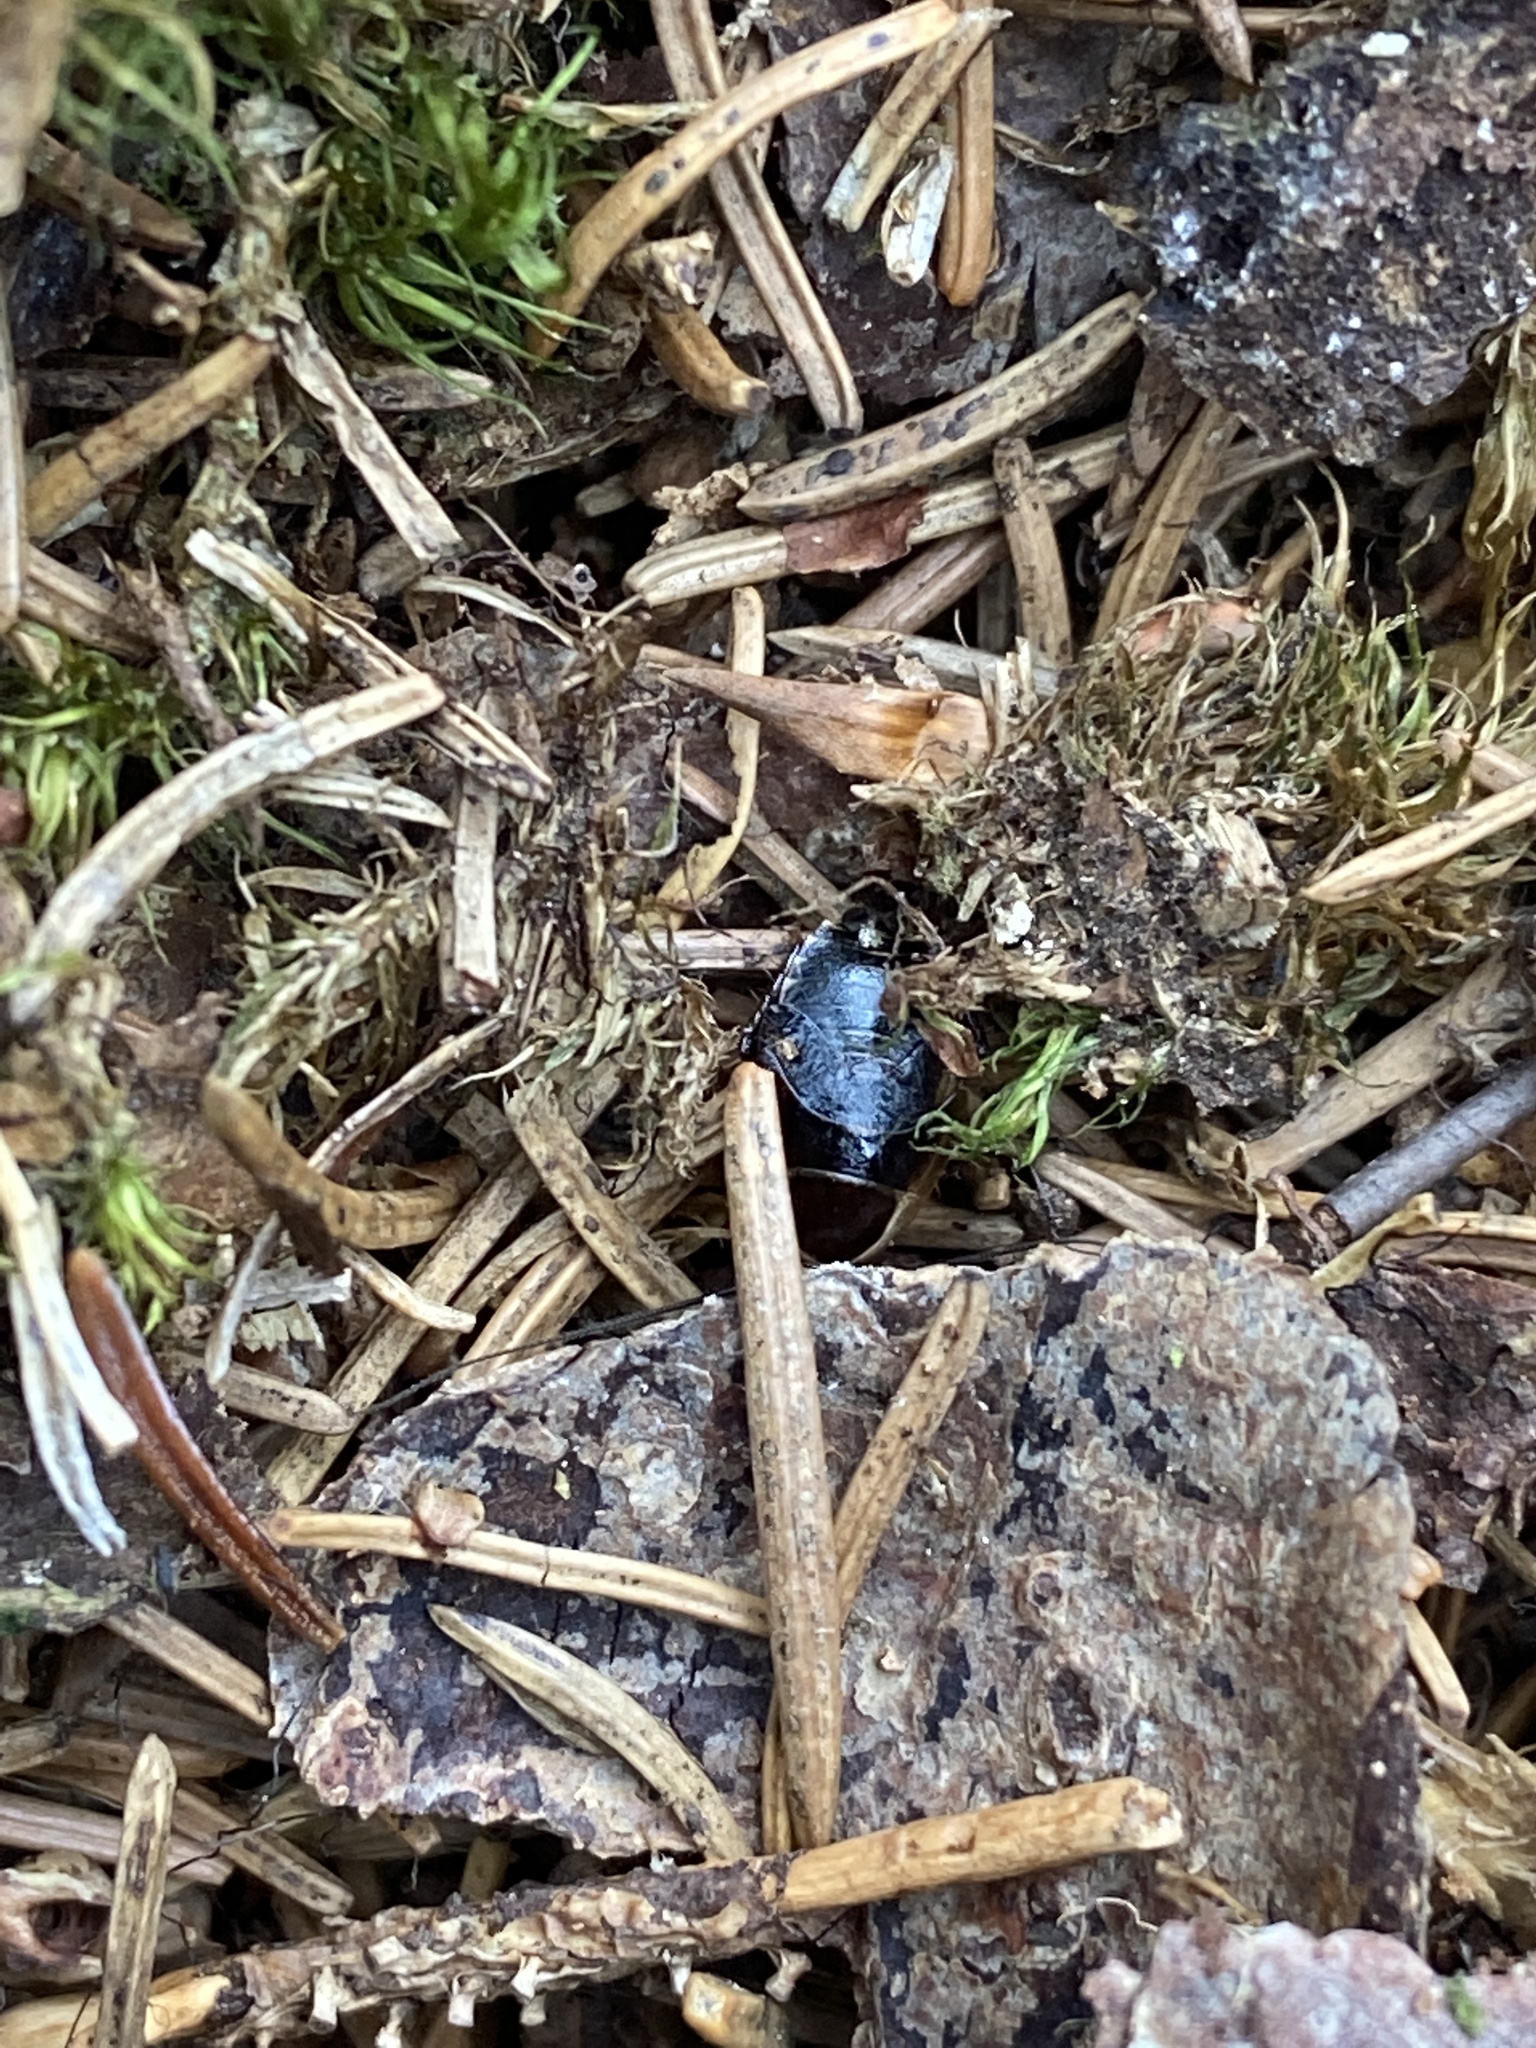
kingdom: Animalia
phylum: Arthropoda
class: Insecta
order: Blattodea
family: Ectobiidae
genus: Ectobius
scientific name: Ectobius sylvestris
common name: Forest cockroach
